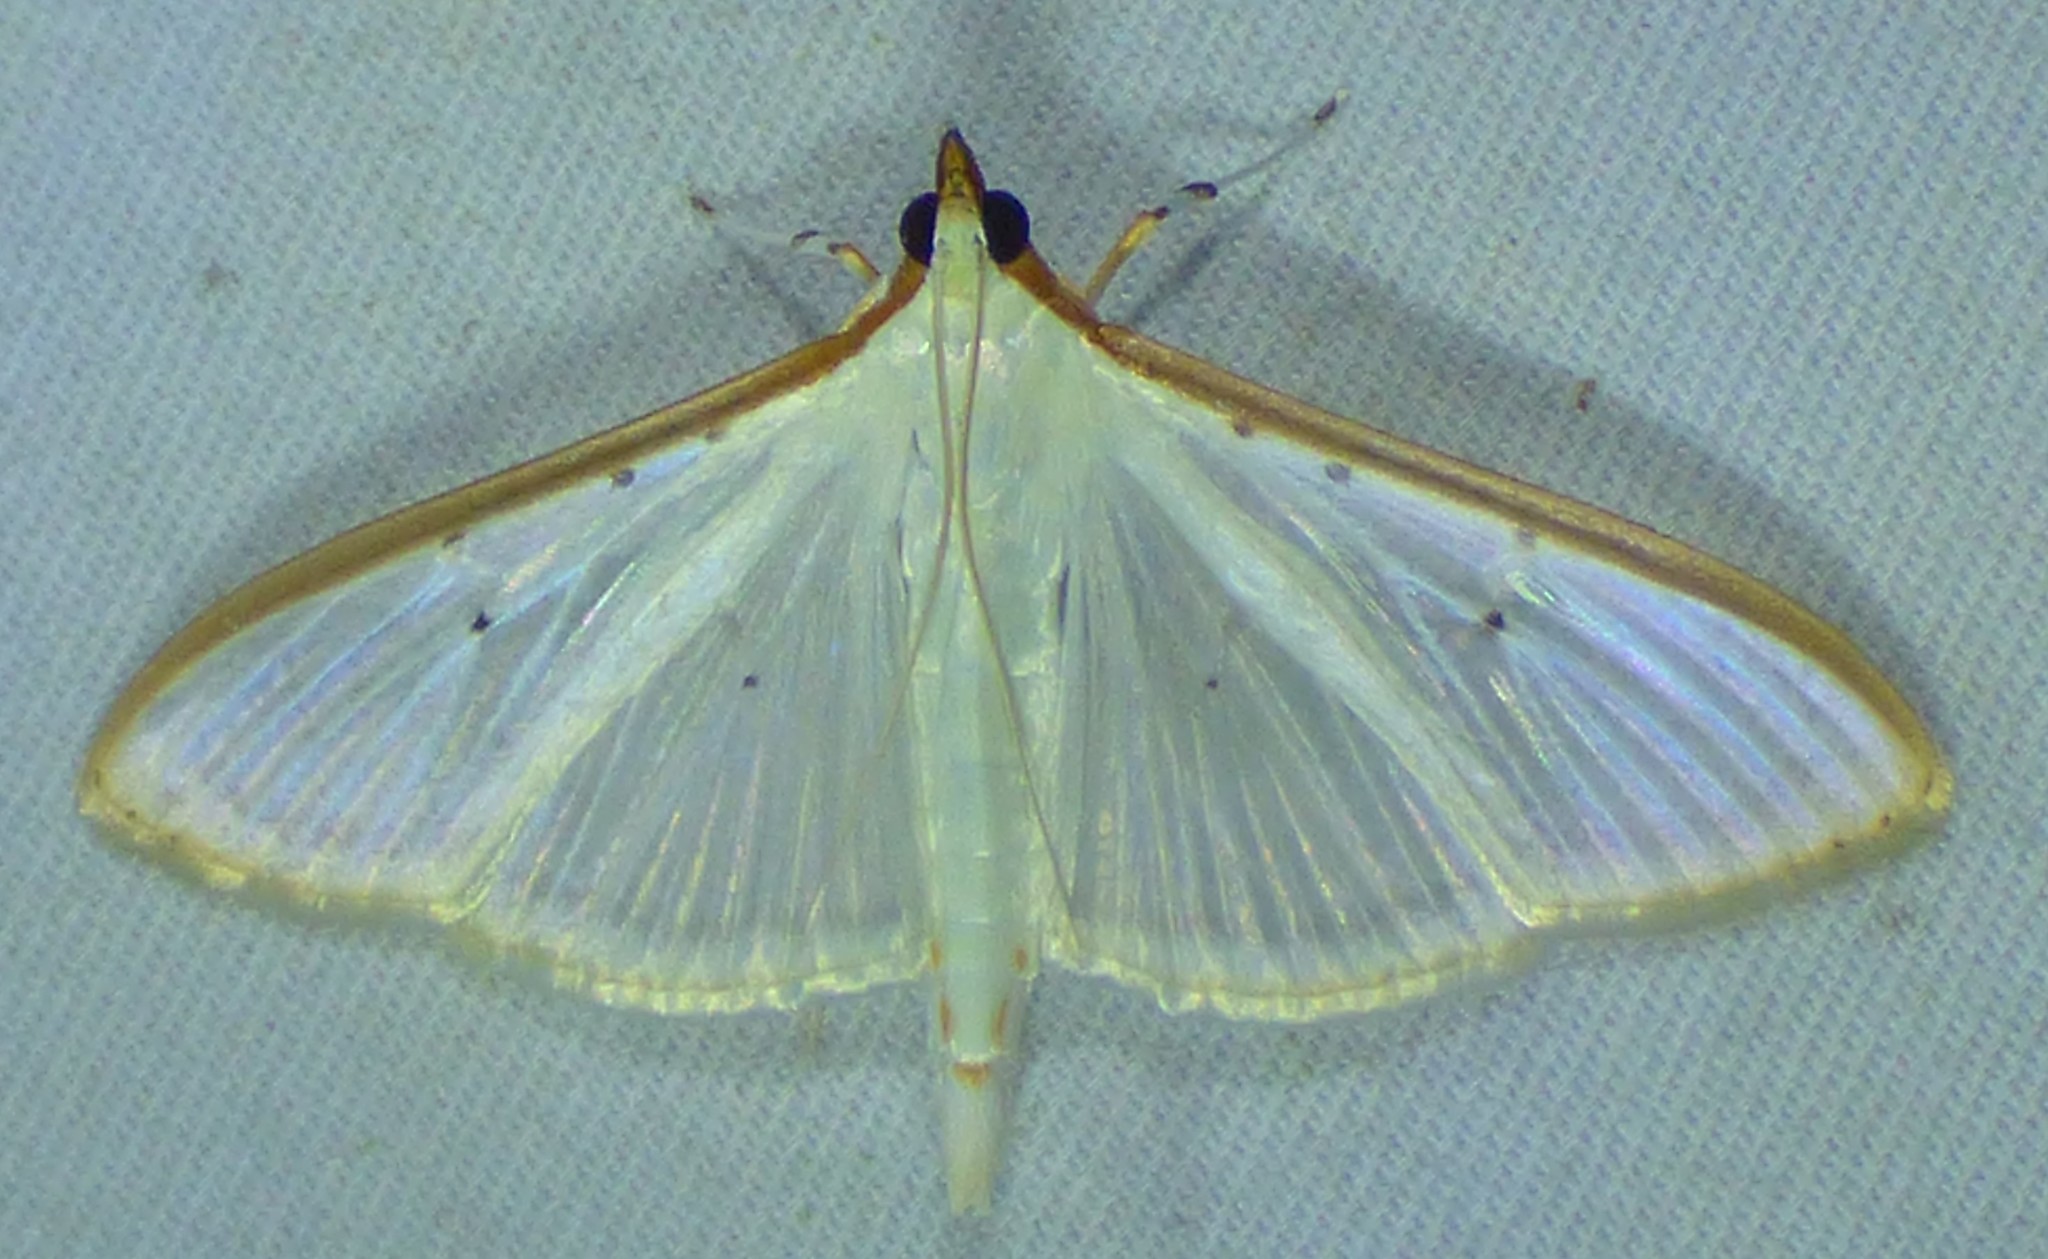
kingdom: Animalia
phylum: Arthropoda
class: Insecta
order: Lepidoptera
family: Crambidae
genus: Palpita
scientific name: Palpita quadristigmalis
